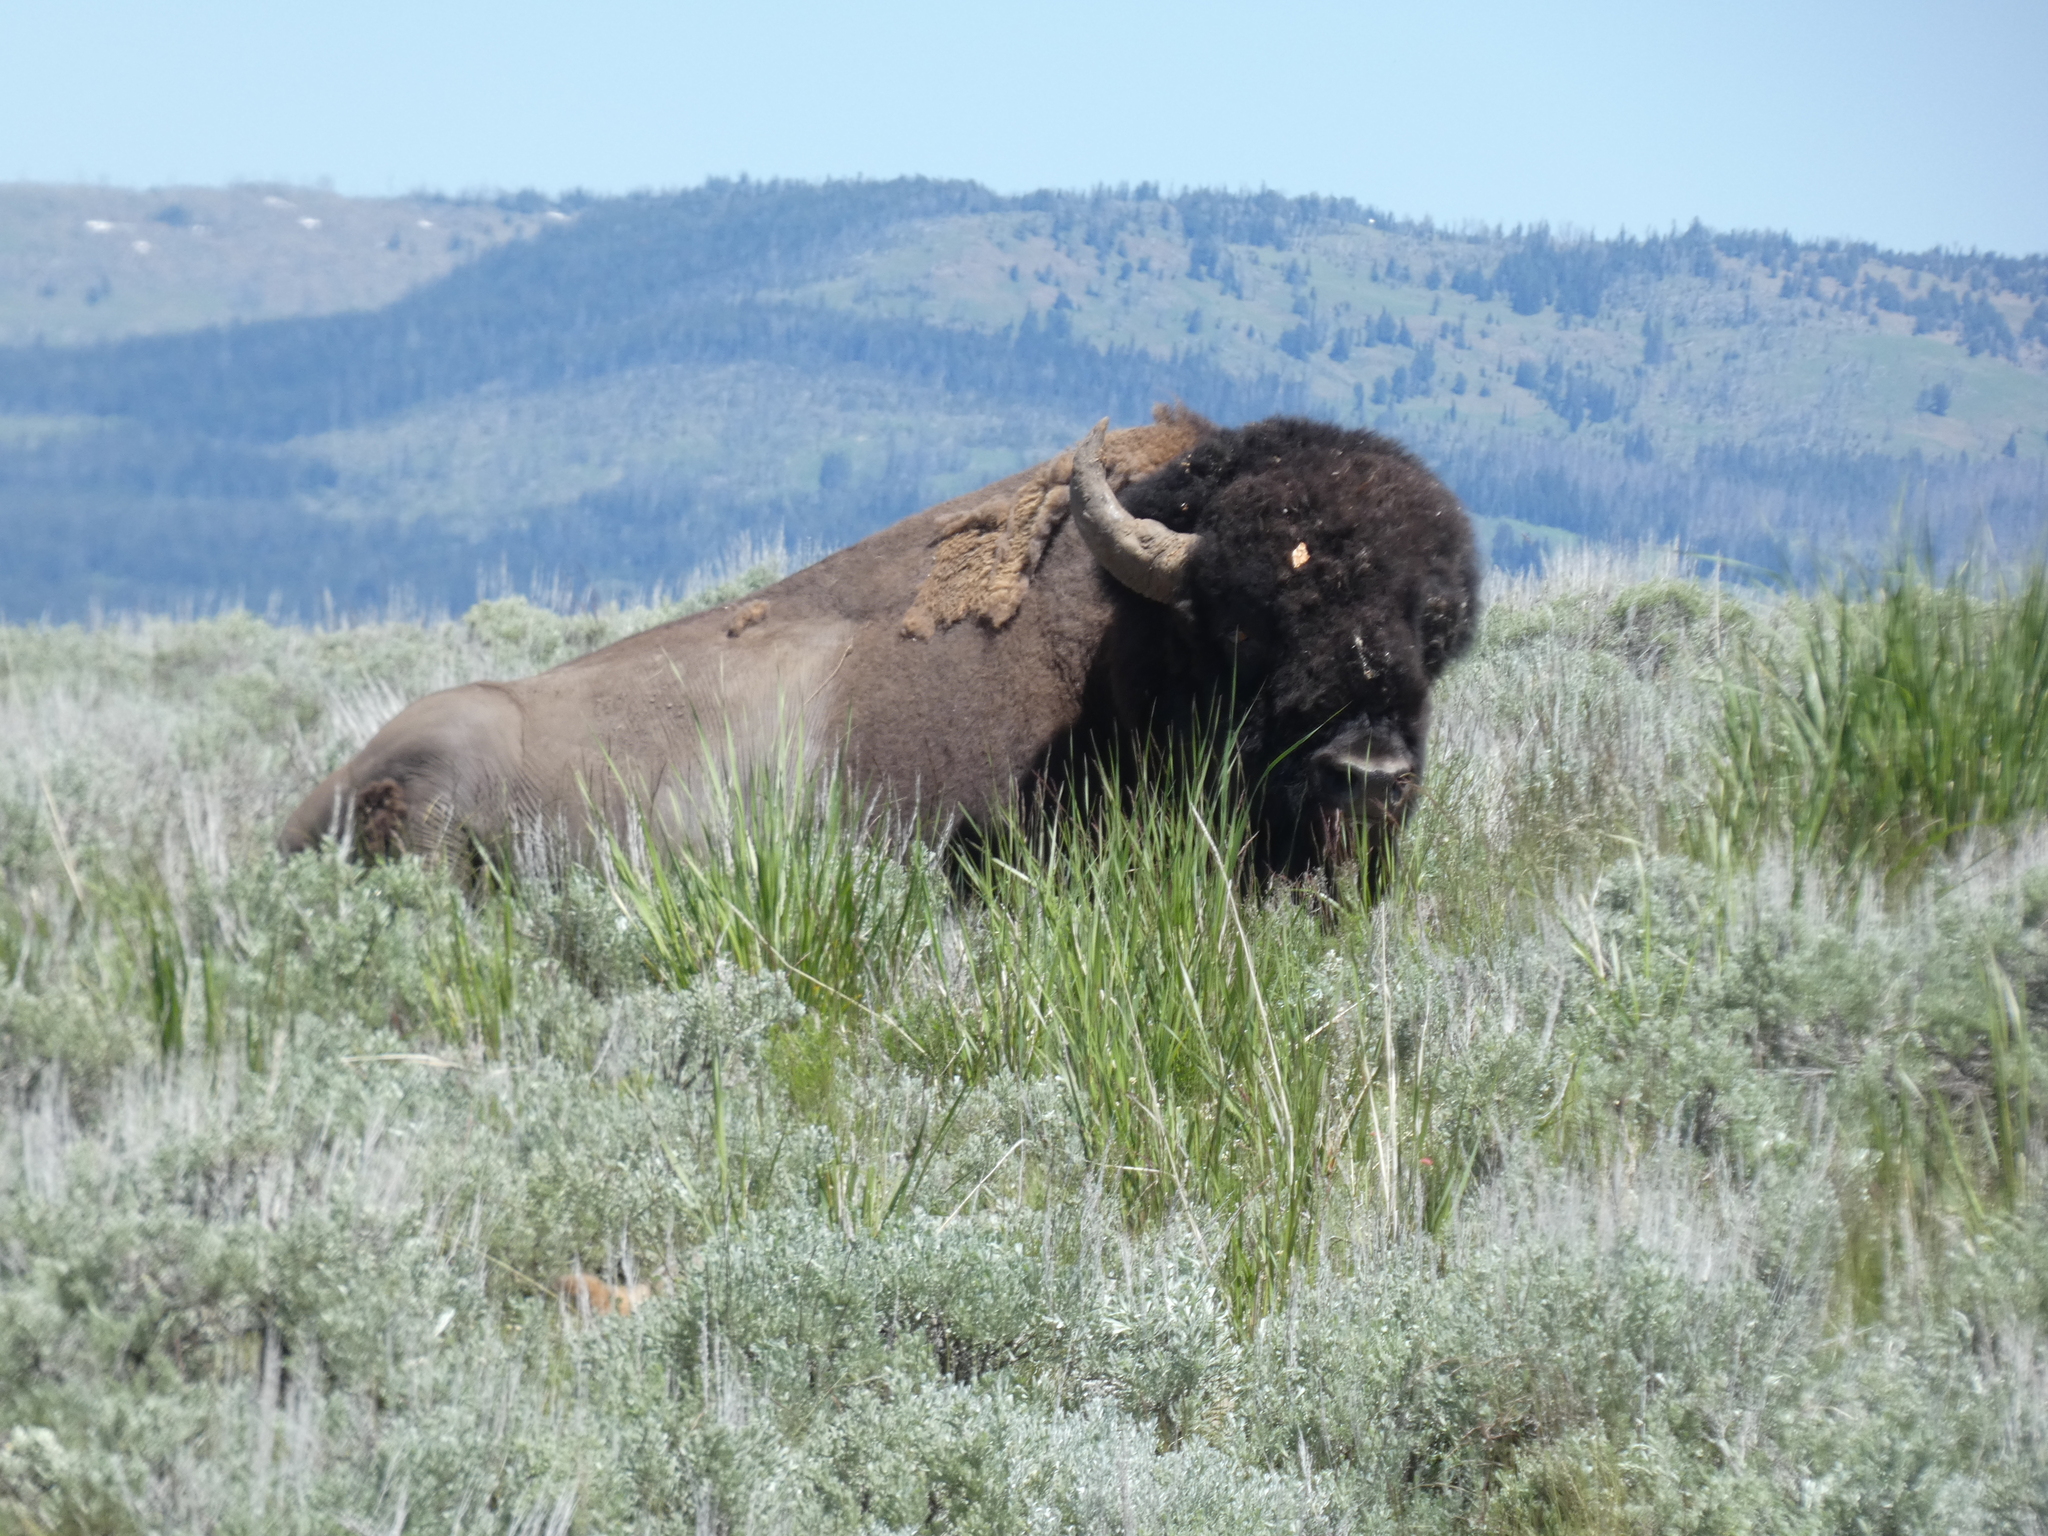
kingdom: Animalia
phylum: Chordata
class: Mammalia
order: Artiodactyla
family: Bovidae
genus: Bison
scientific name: Bison bison
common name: American bison
